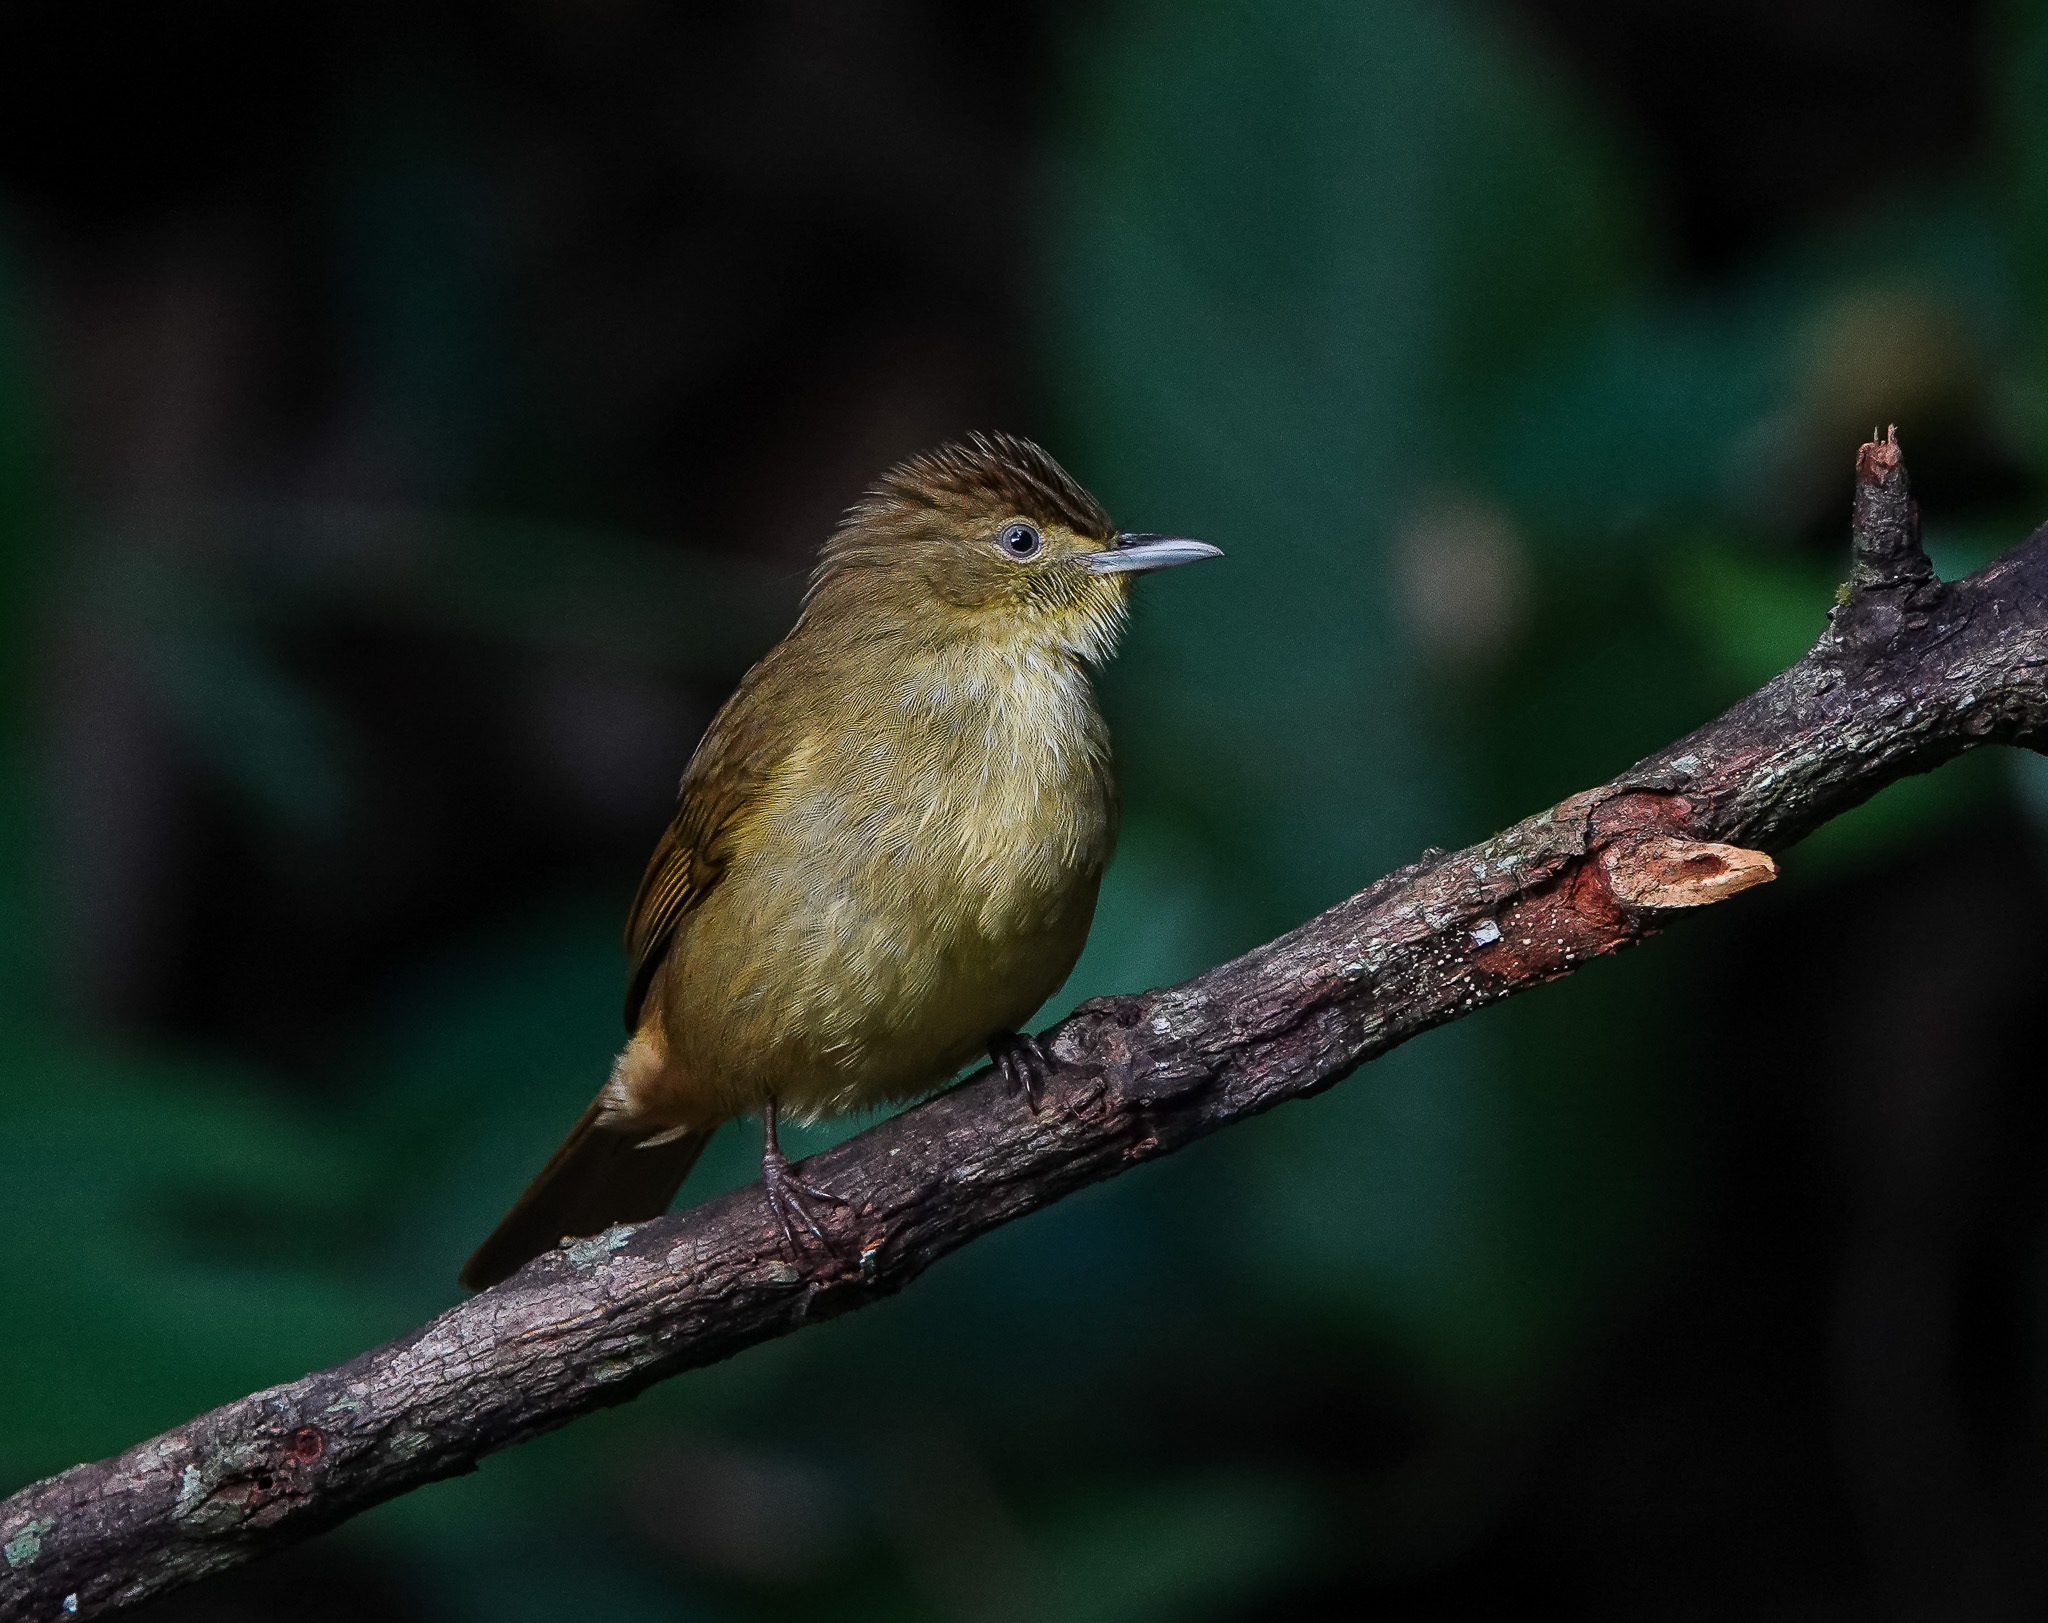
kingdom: Animalia
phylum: Chordata
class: Aves
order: Passeriformes
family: Pycnonotidae
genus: Iole
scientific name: Iole virescens
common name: Olive bulbul
